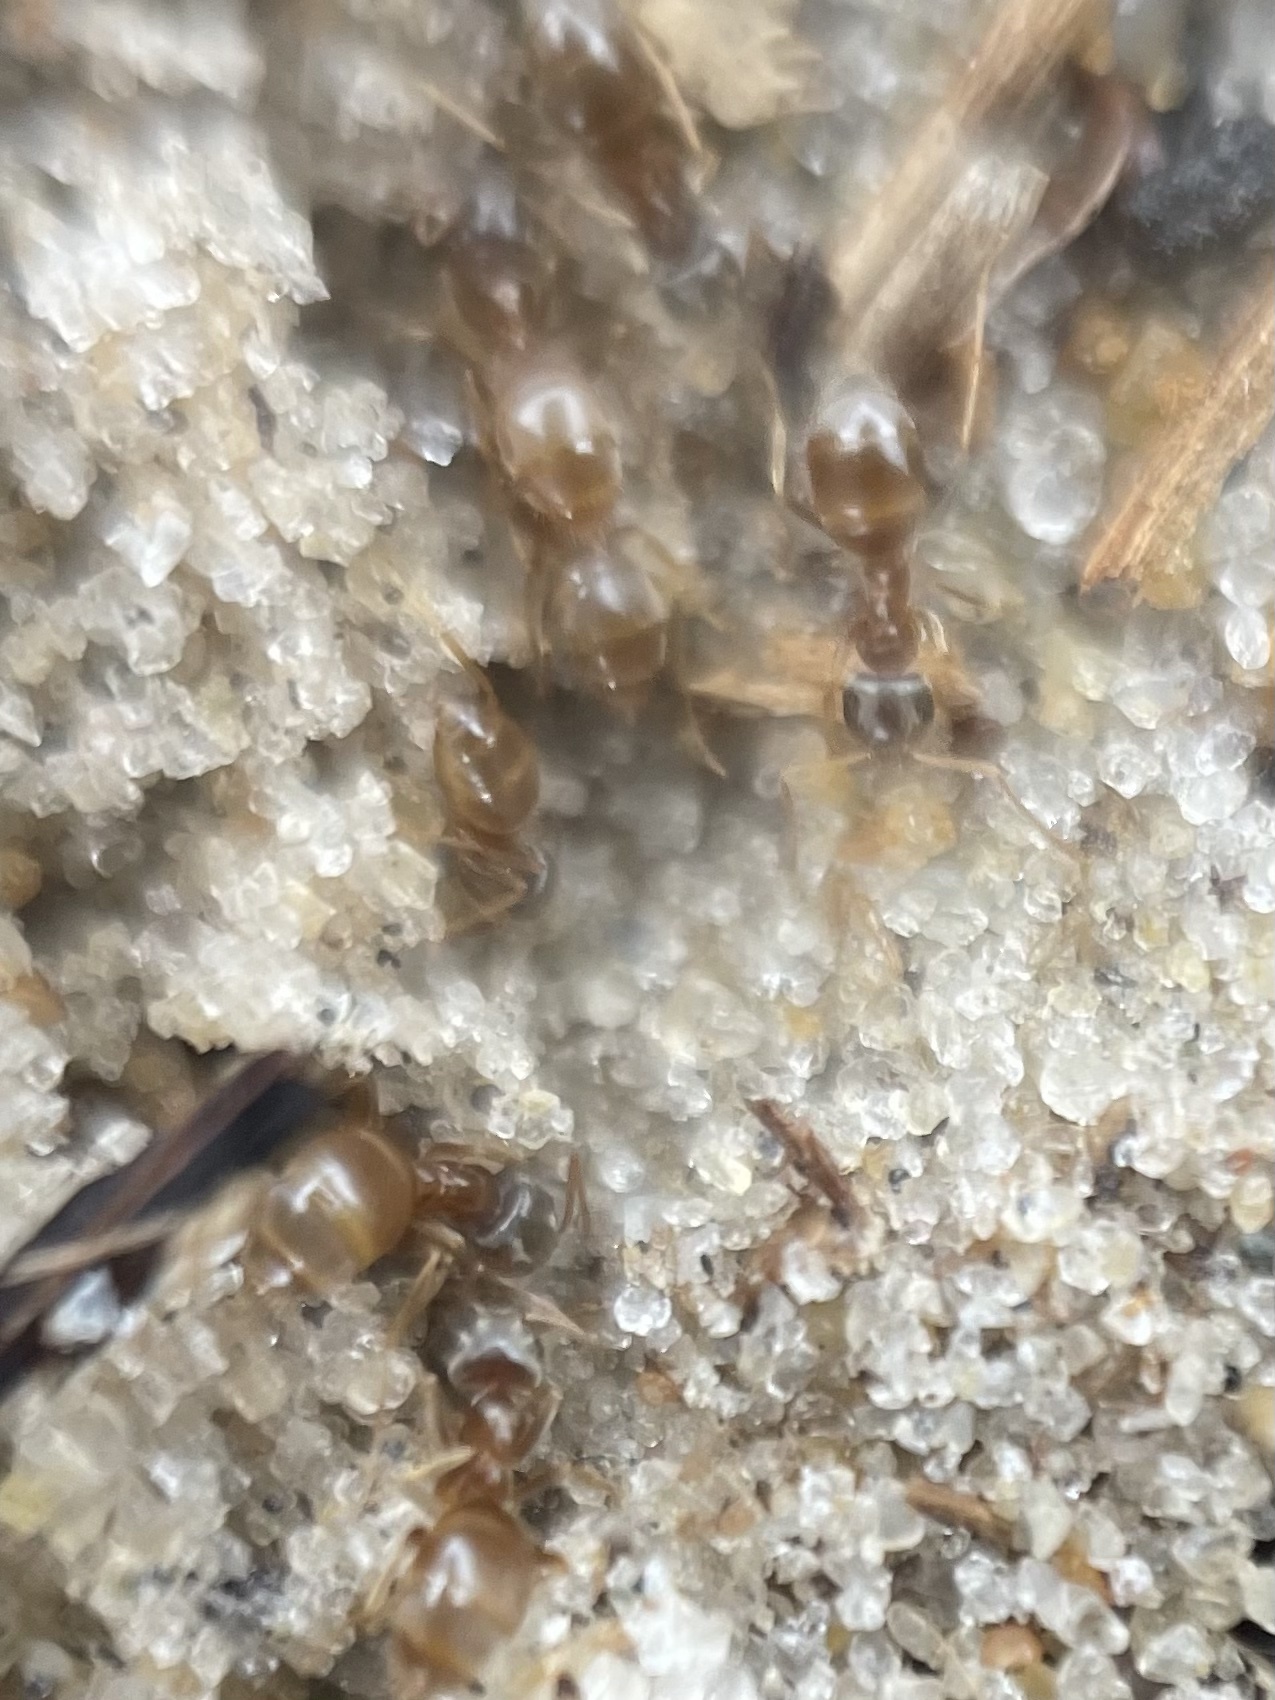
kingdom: Animalia
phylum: Arthropoda
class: Insecta
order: Hymenoptera
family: Formicidae
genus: Lasius
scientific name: Lasius neoniger
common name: Turfgrass ant
